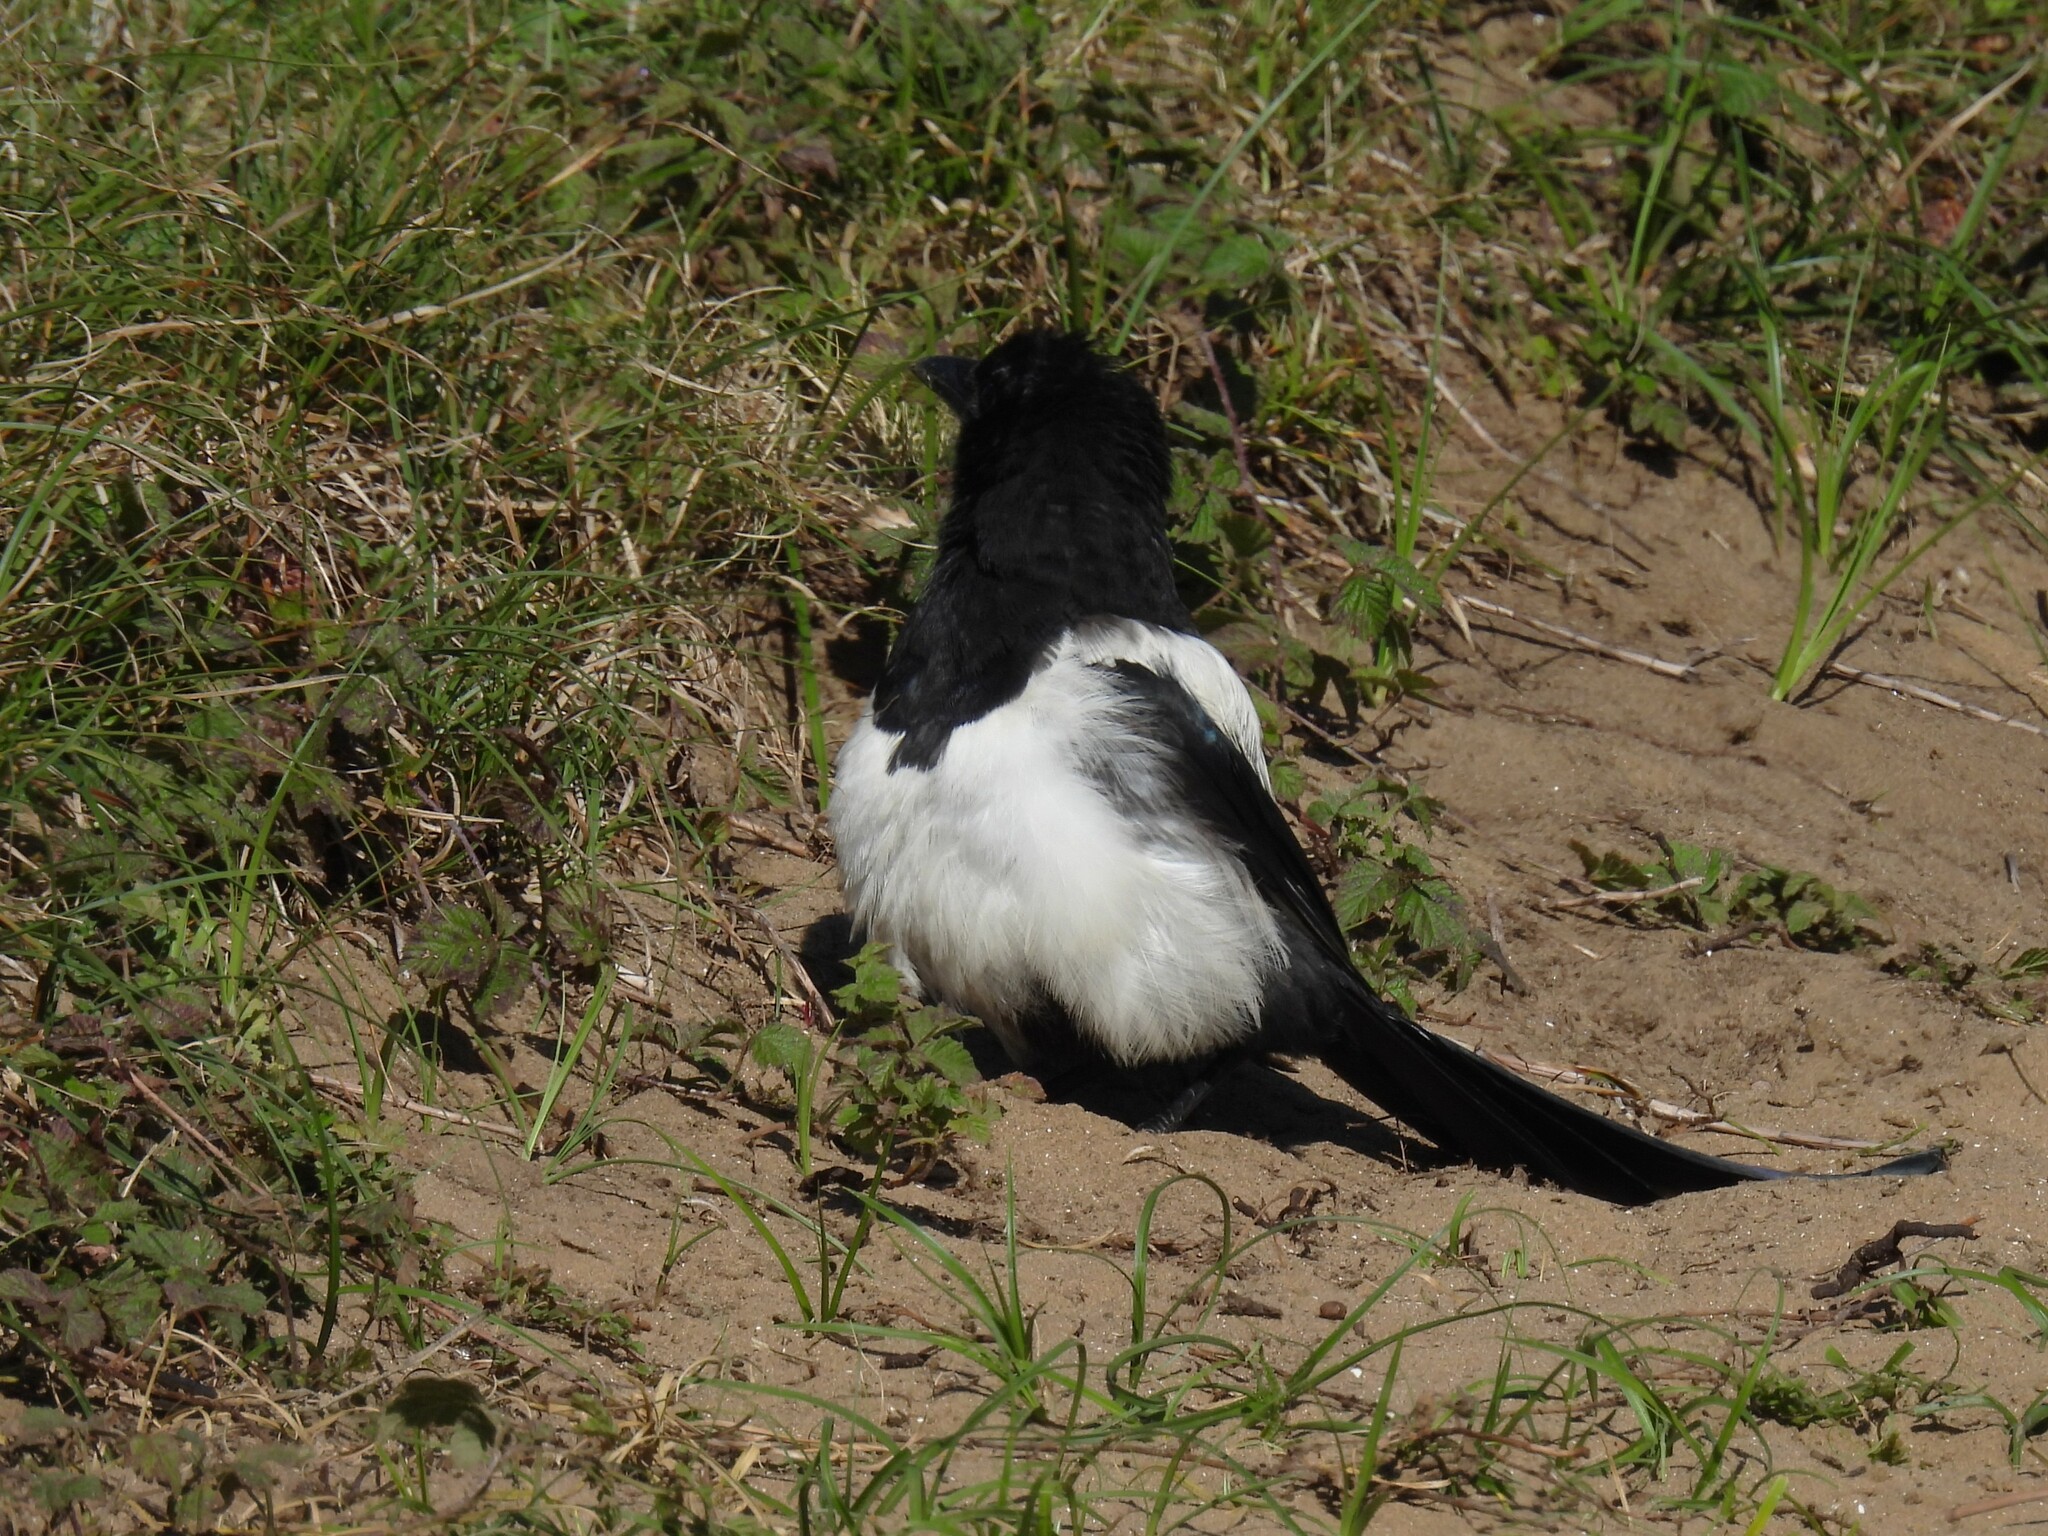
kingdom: Animalia
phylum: Chordata
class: Aves
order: Passeriformes
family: Corvidae
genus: Pica
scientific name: Pica pica
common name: Eurasian magpie
